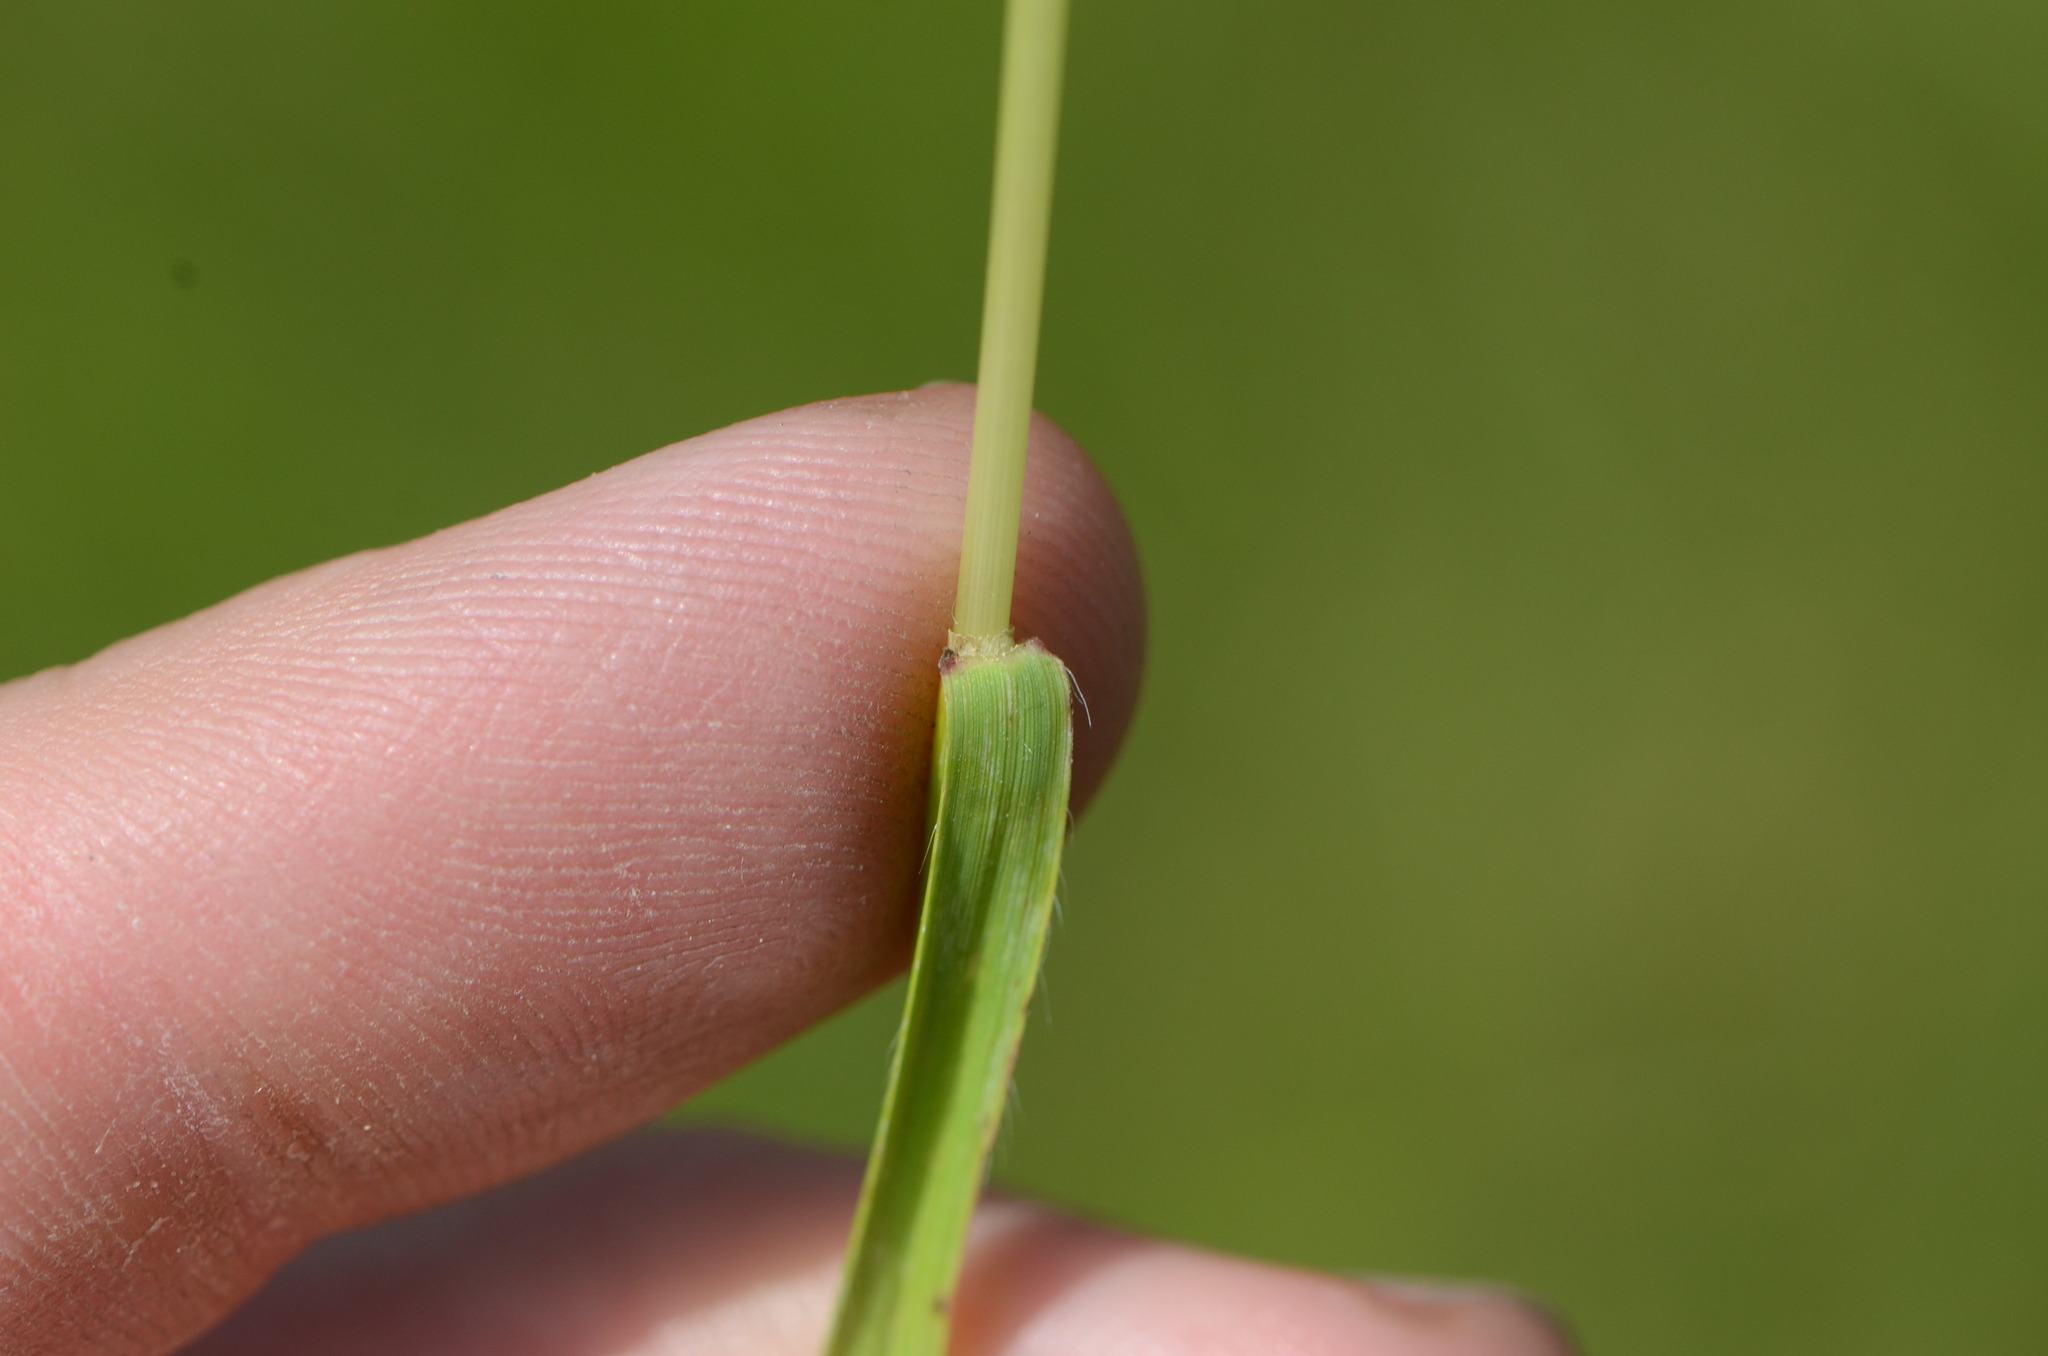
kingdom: Plantae
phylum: Tracheophyta
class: Liliopsida
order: Poales
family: Poaceae
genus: Bromus
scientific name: Bromus erectus
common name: Erect brome
